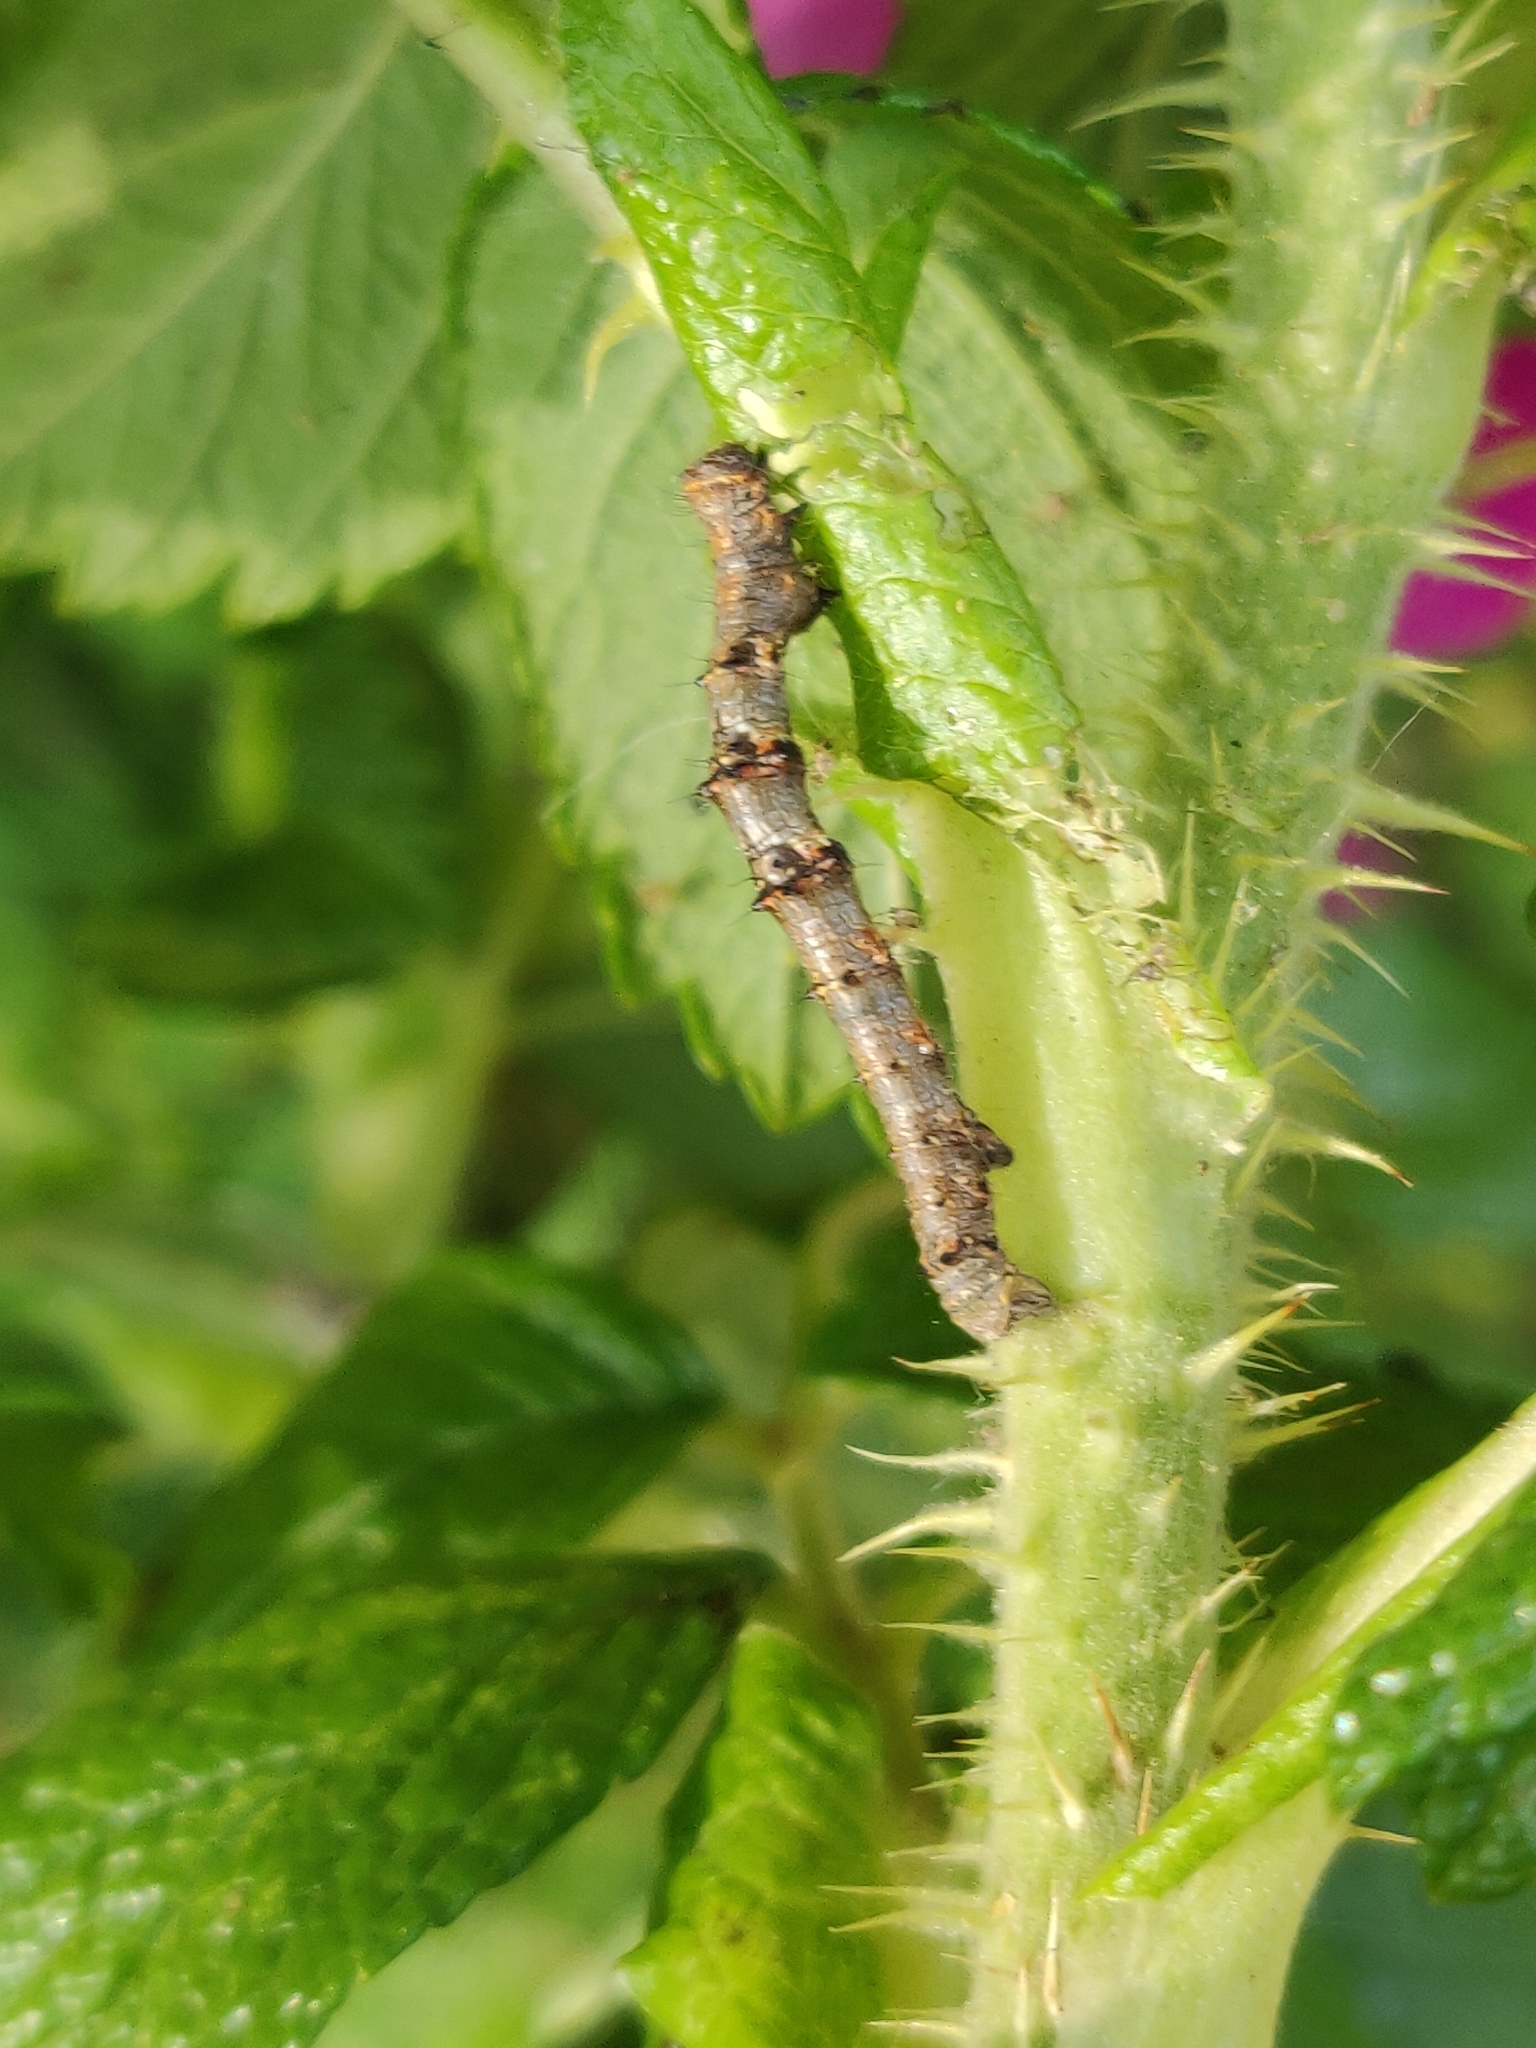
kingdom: Animalia
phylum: Arthropoda
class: Insecta
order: Lepidoptera
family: Geometridae
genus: Phigalia
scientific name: Phigalia pilosaria
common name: Pale brindled beauty
